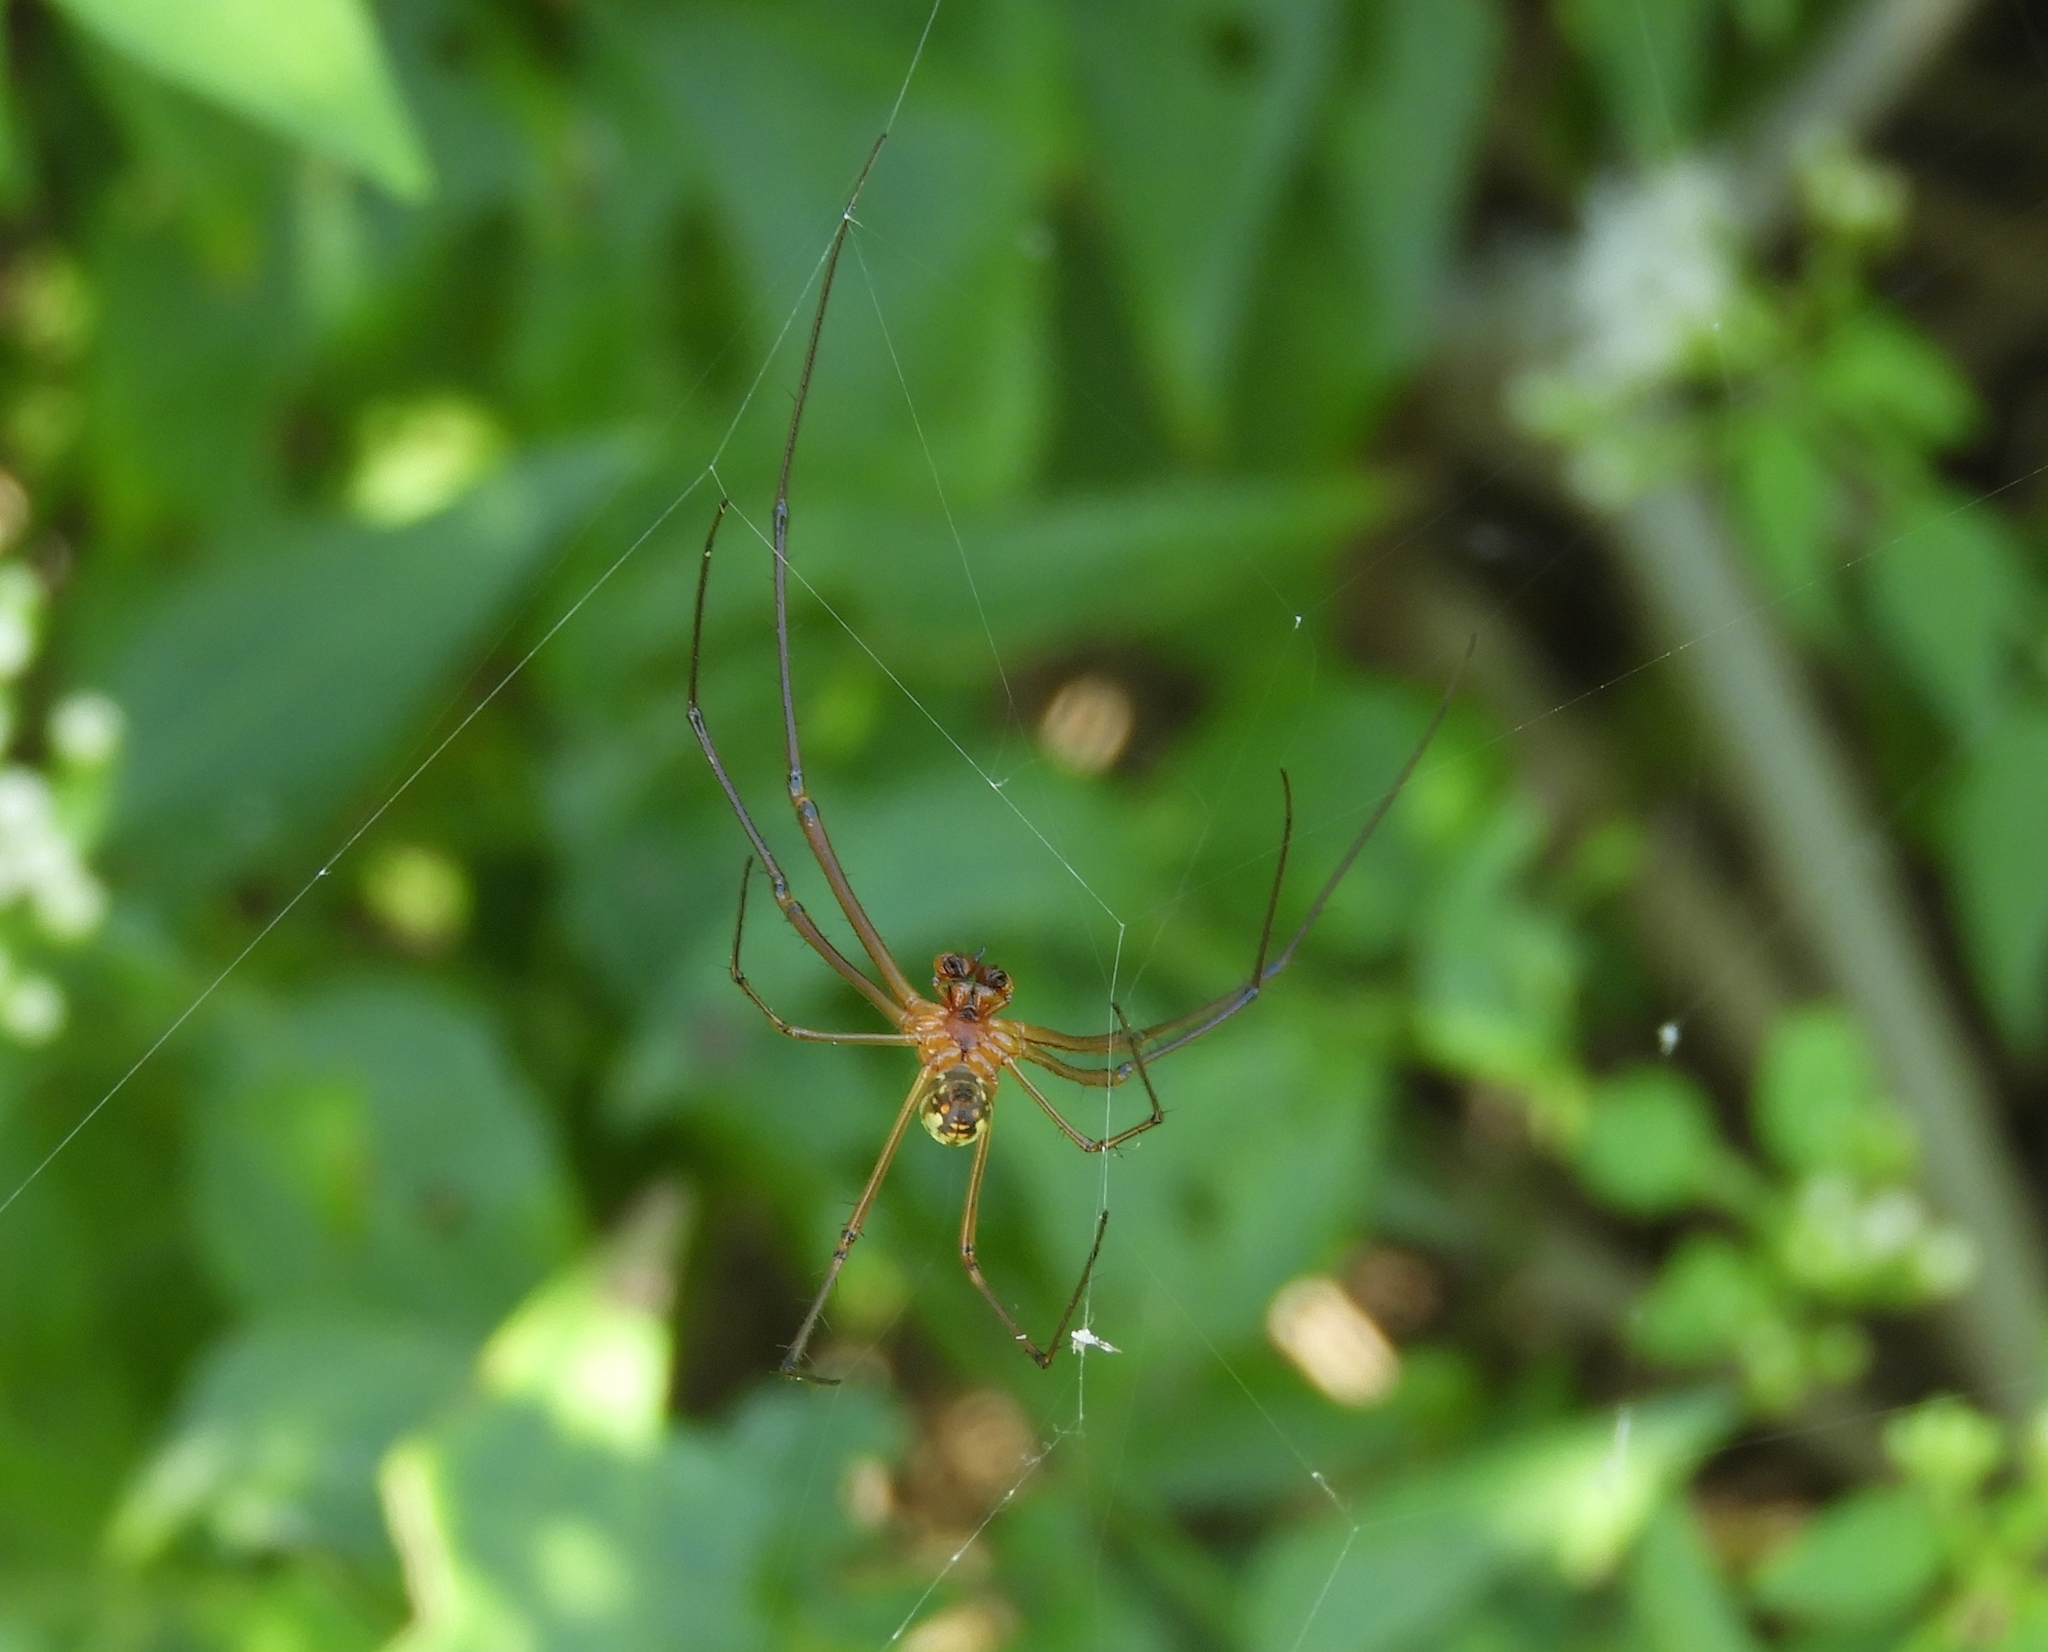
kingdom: Animalia
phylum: Arthropoda
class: Arachnida
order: Araneae
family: Tetragnathidae
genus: Leucauge
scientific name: Leucauge
